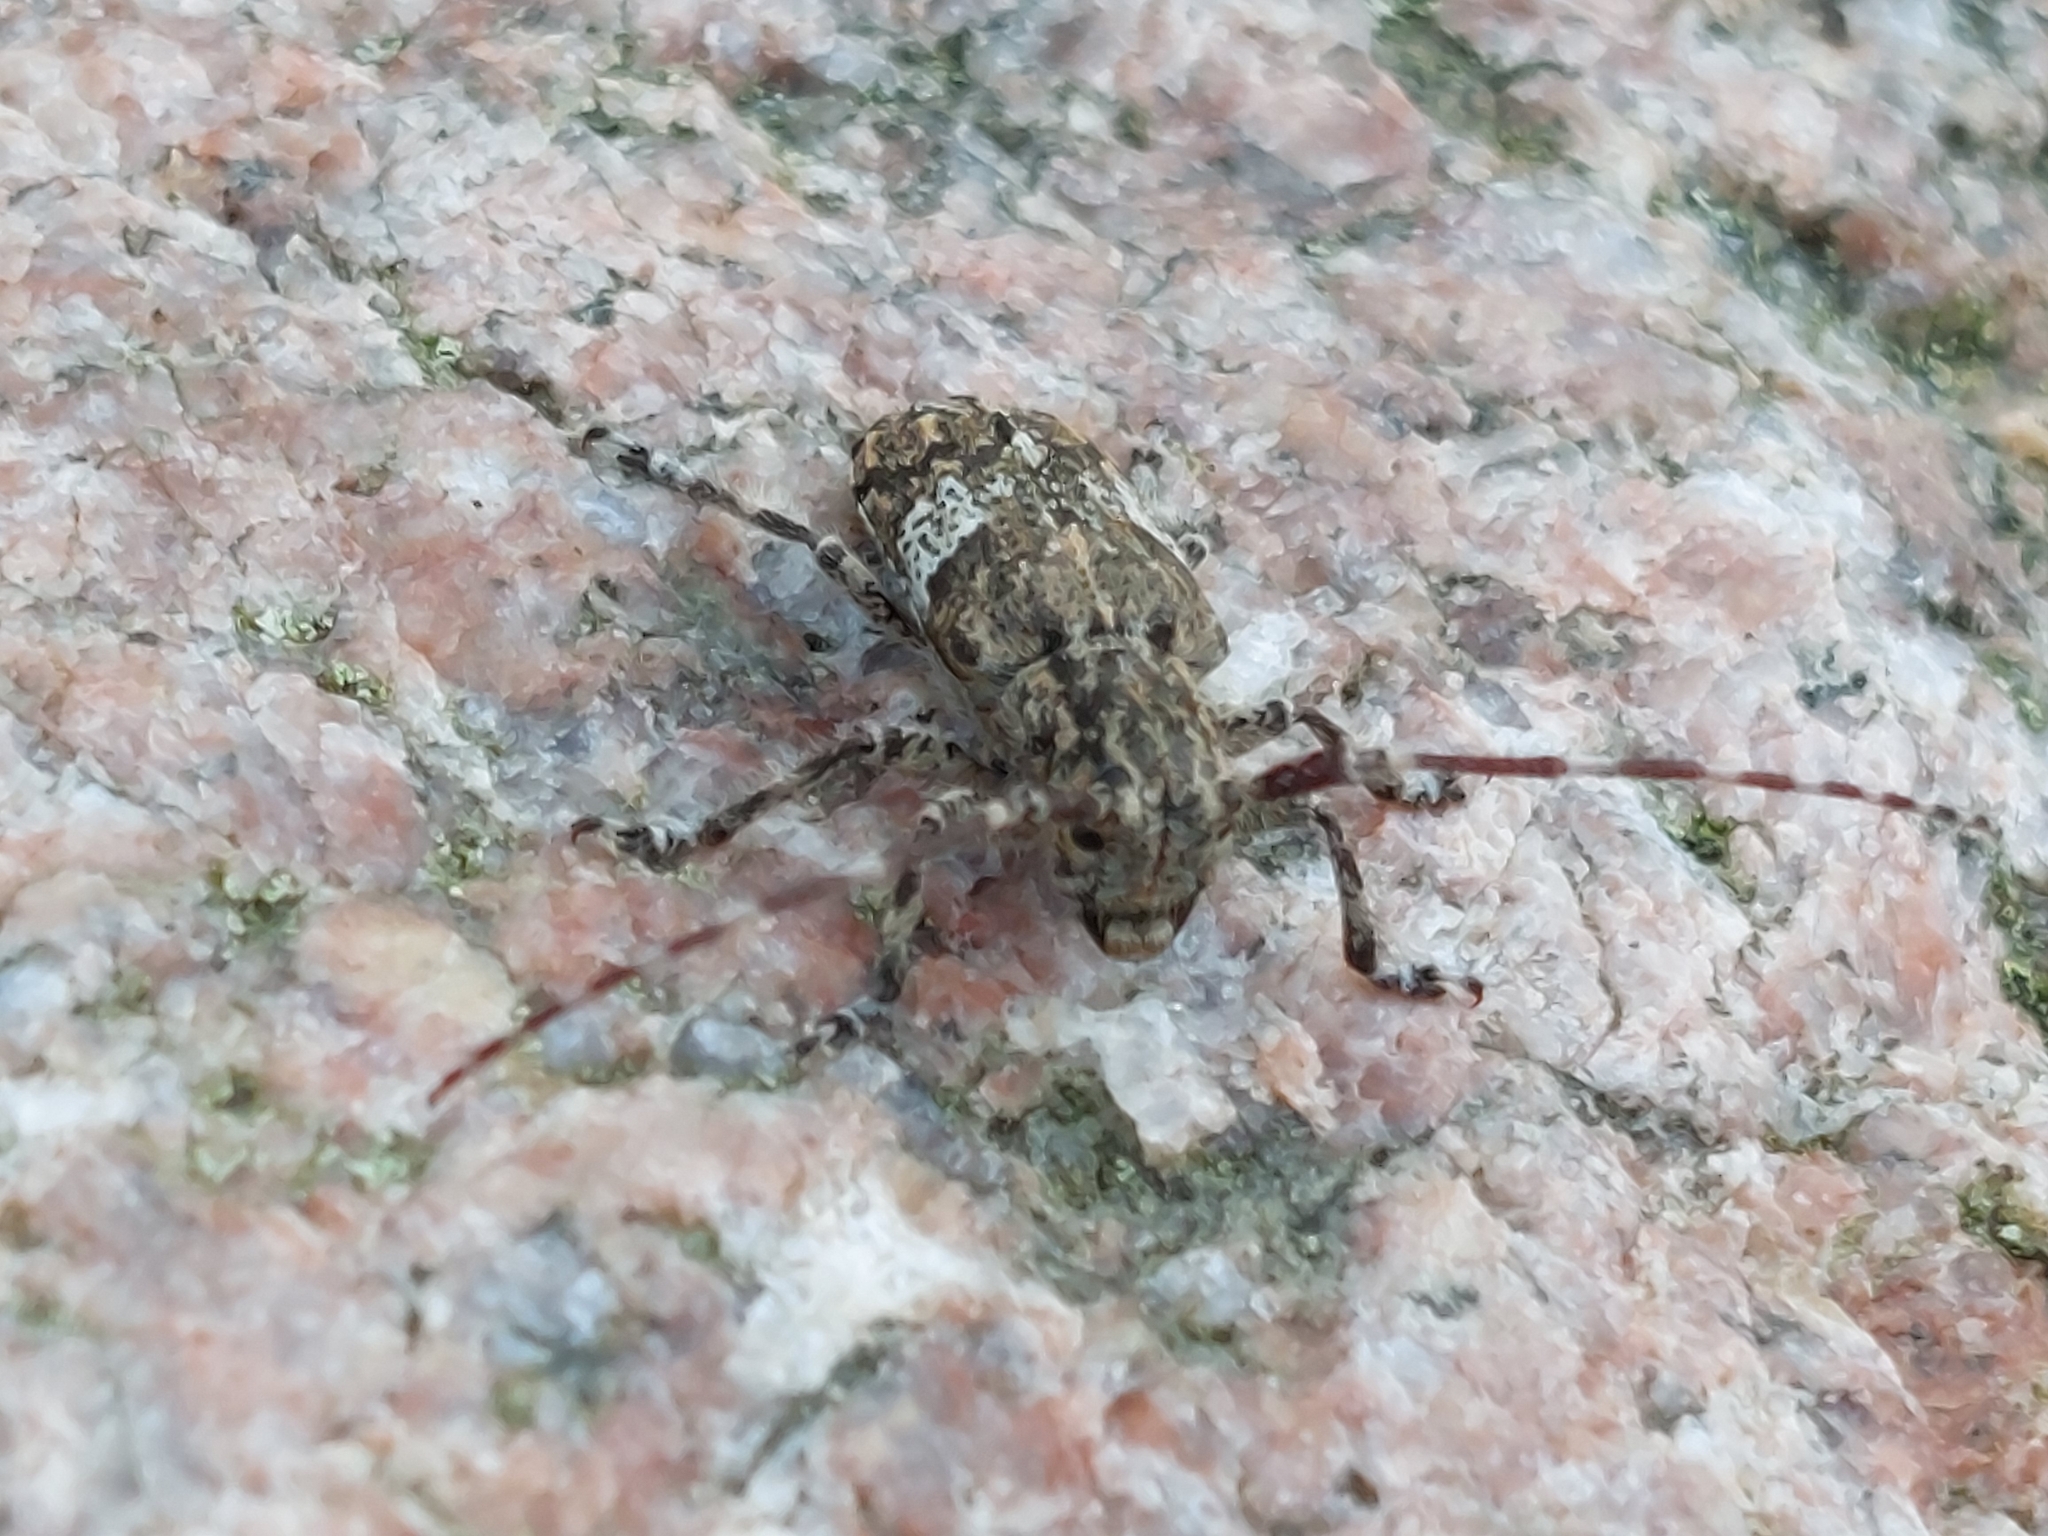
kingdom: Animalia
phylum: Arthropoda
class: Insecta
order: Coleoptera
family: Cerambycidae
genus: Mesosa
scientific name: Mesosa nebulosa
